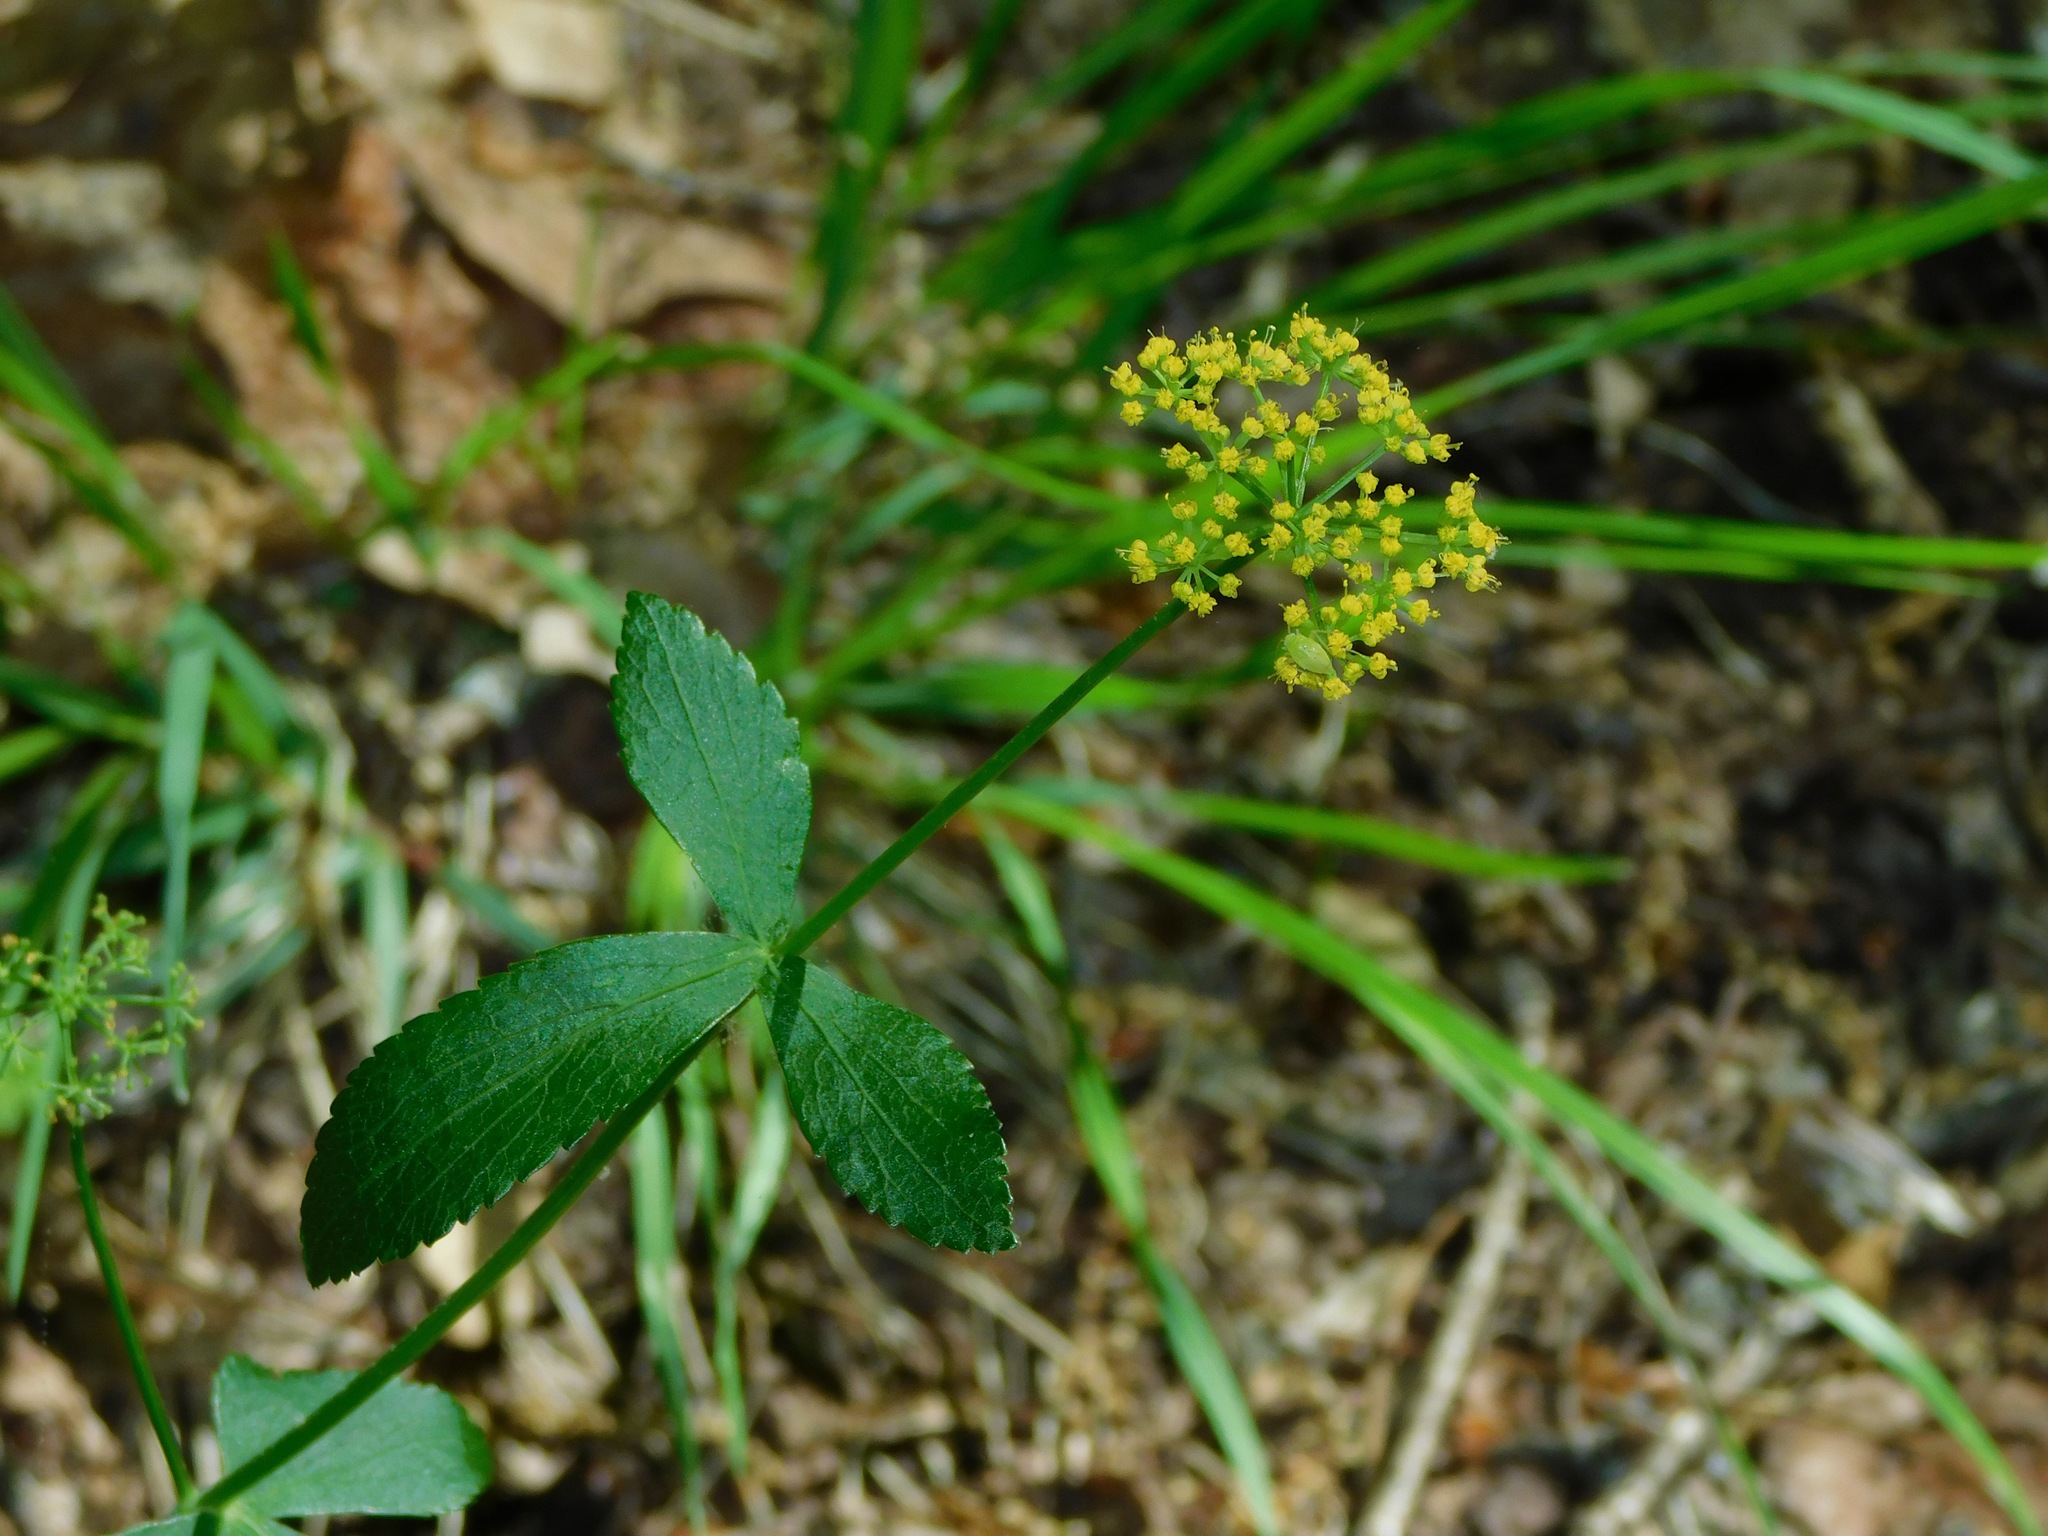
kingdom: Plantae
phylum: Tracheophyta
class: Magnoliopsida
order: Apiales
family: Apiaceae
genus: Zizia
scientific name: Zizia aptera
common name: Heart-leaved alexanders
